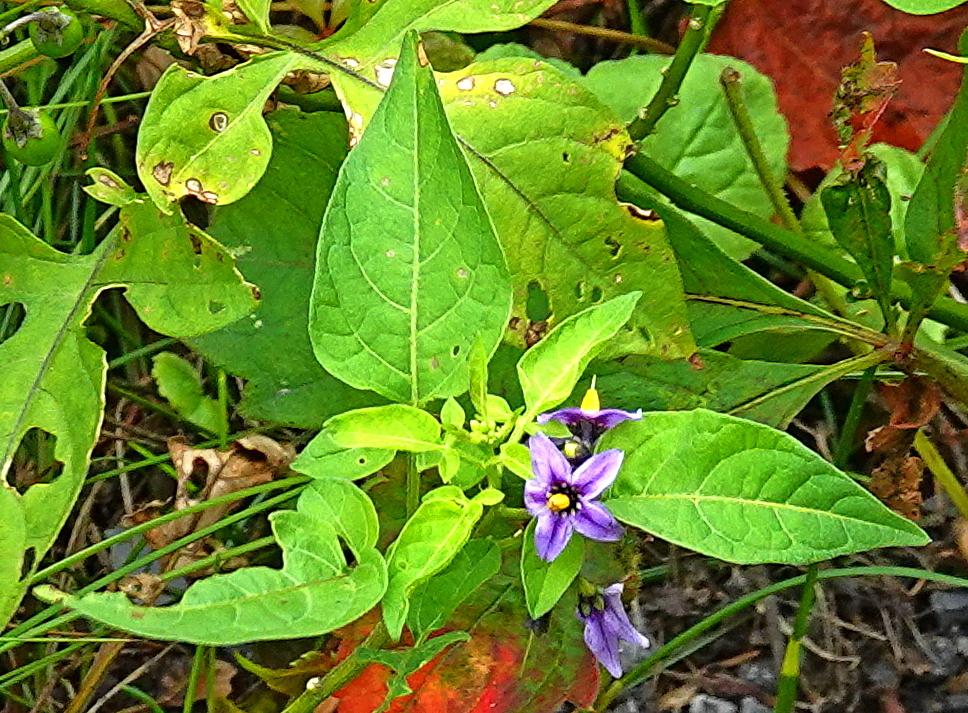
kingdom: Plantae
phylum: Tracheophyta
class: Magnoliopsida
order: Solanales
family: Solanaceae
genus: Solanum
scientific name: Solanum dulcamara
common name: Climbing nightshade
